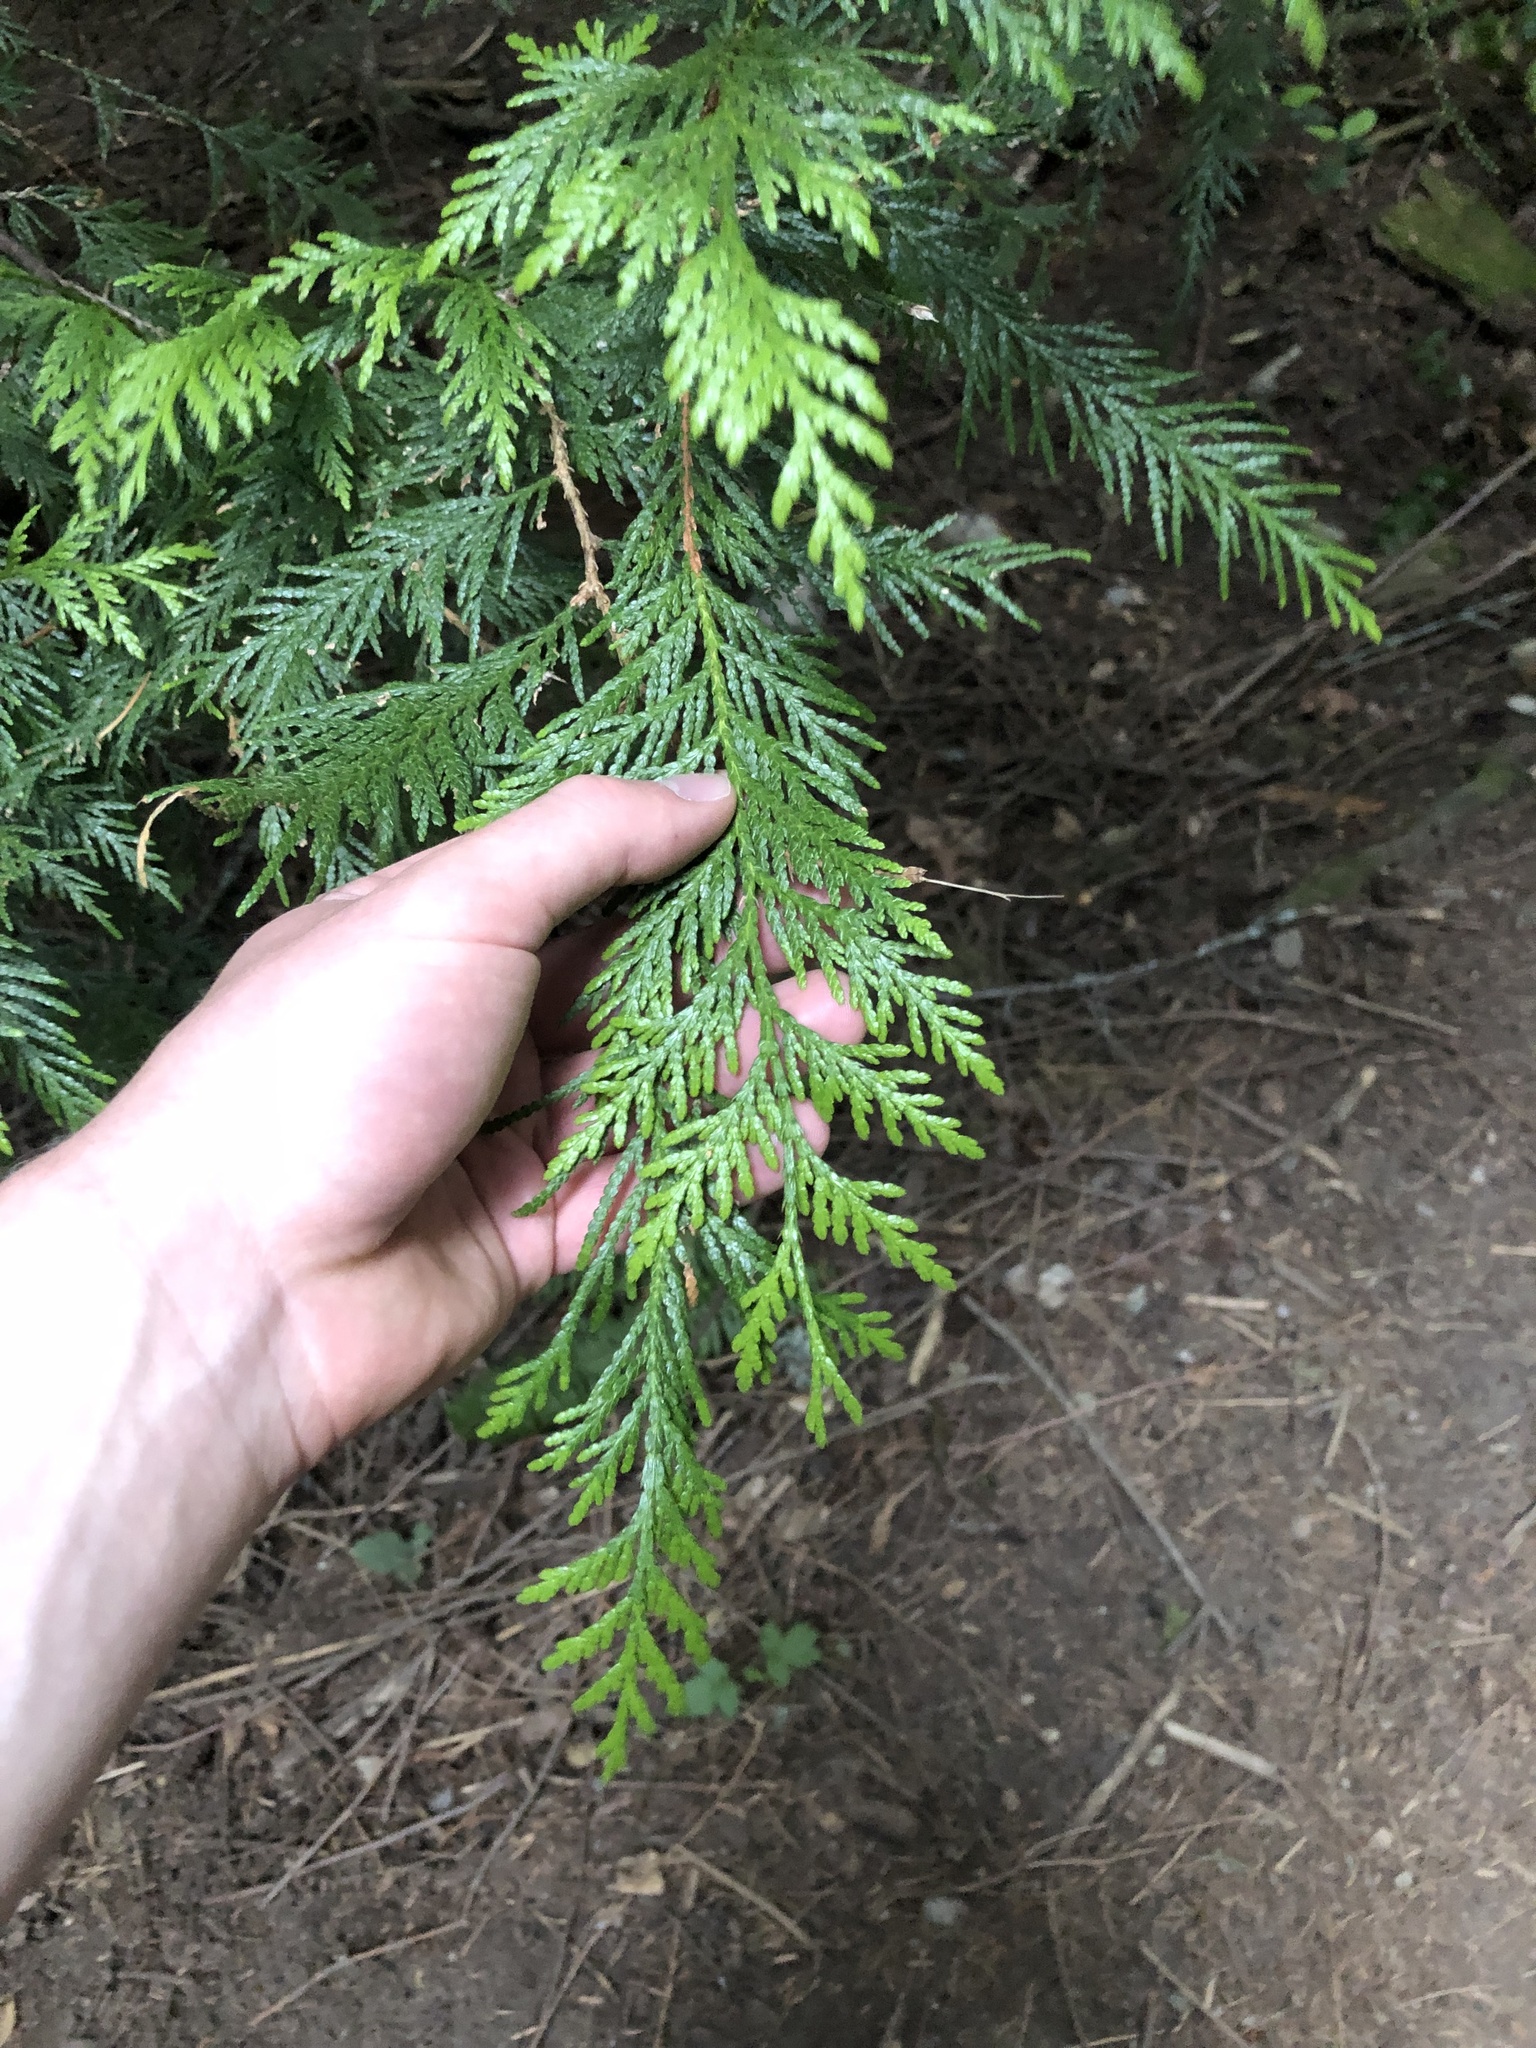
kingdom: Plantae
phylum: Tracheophyta
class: Pinopsida
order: Pinales
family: Cupressaceae
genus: Thuja
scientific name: Thuja plicata
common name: Western red-cedar
